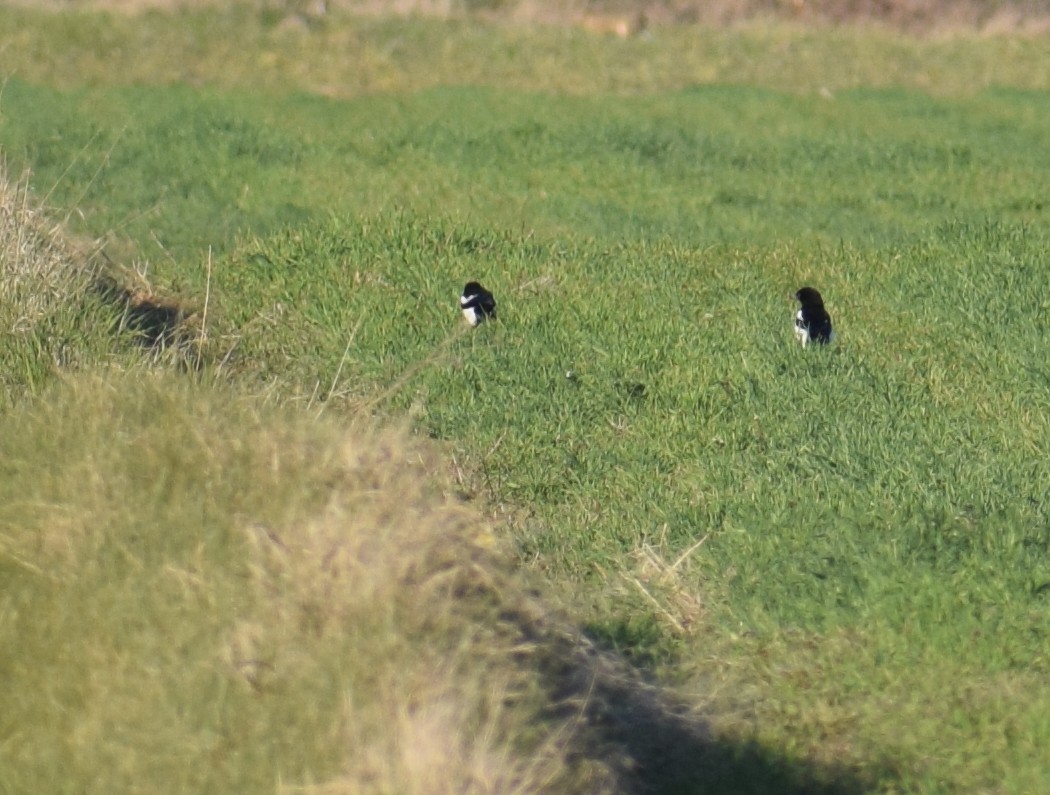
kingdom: Animalia
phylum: Chordata
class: Aves
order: Passeriformes
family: Corvidae
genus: Pica
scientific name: Pica pica
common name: Eurasian magpie
